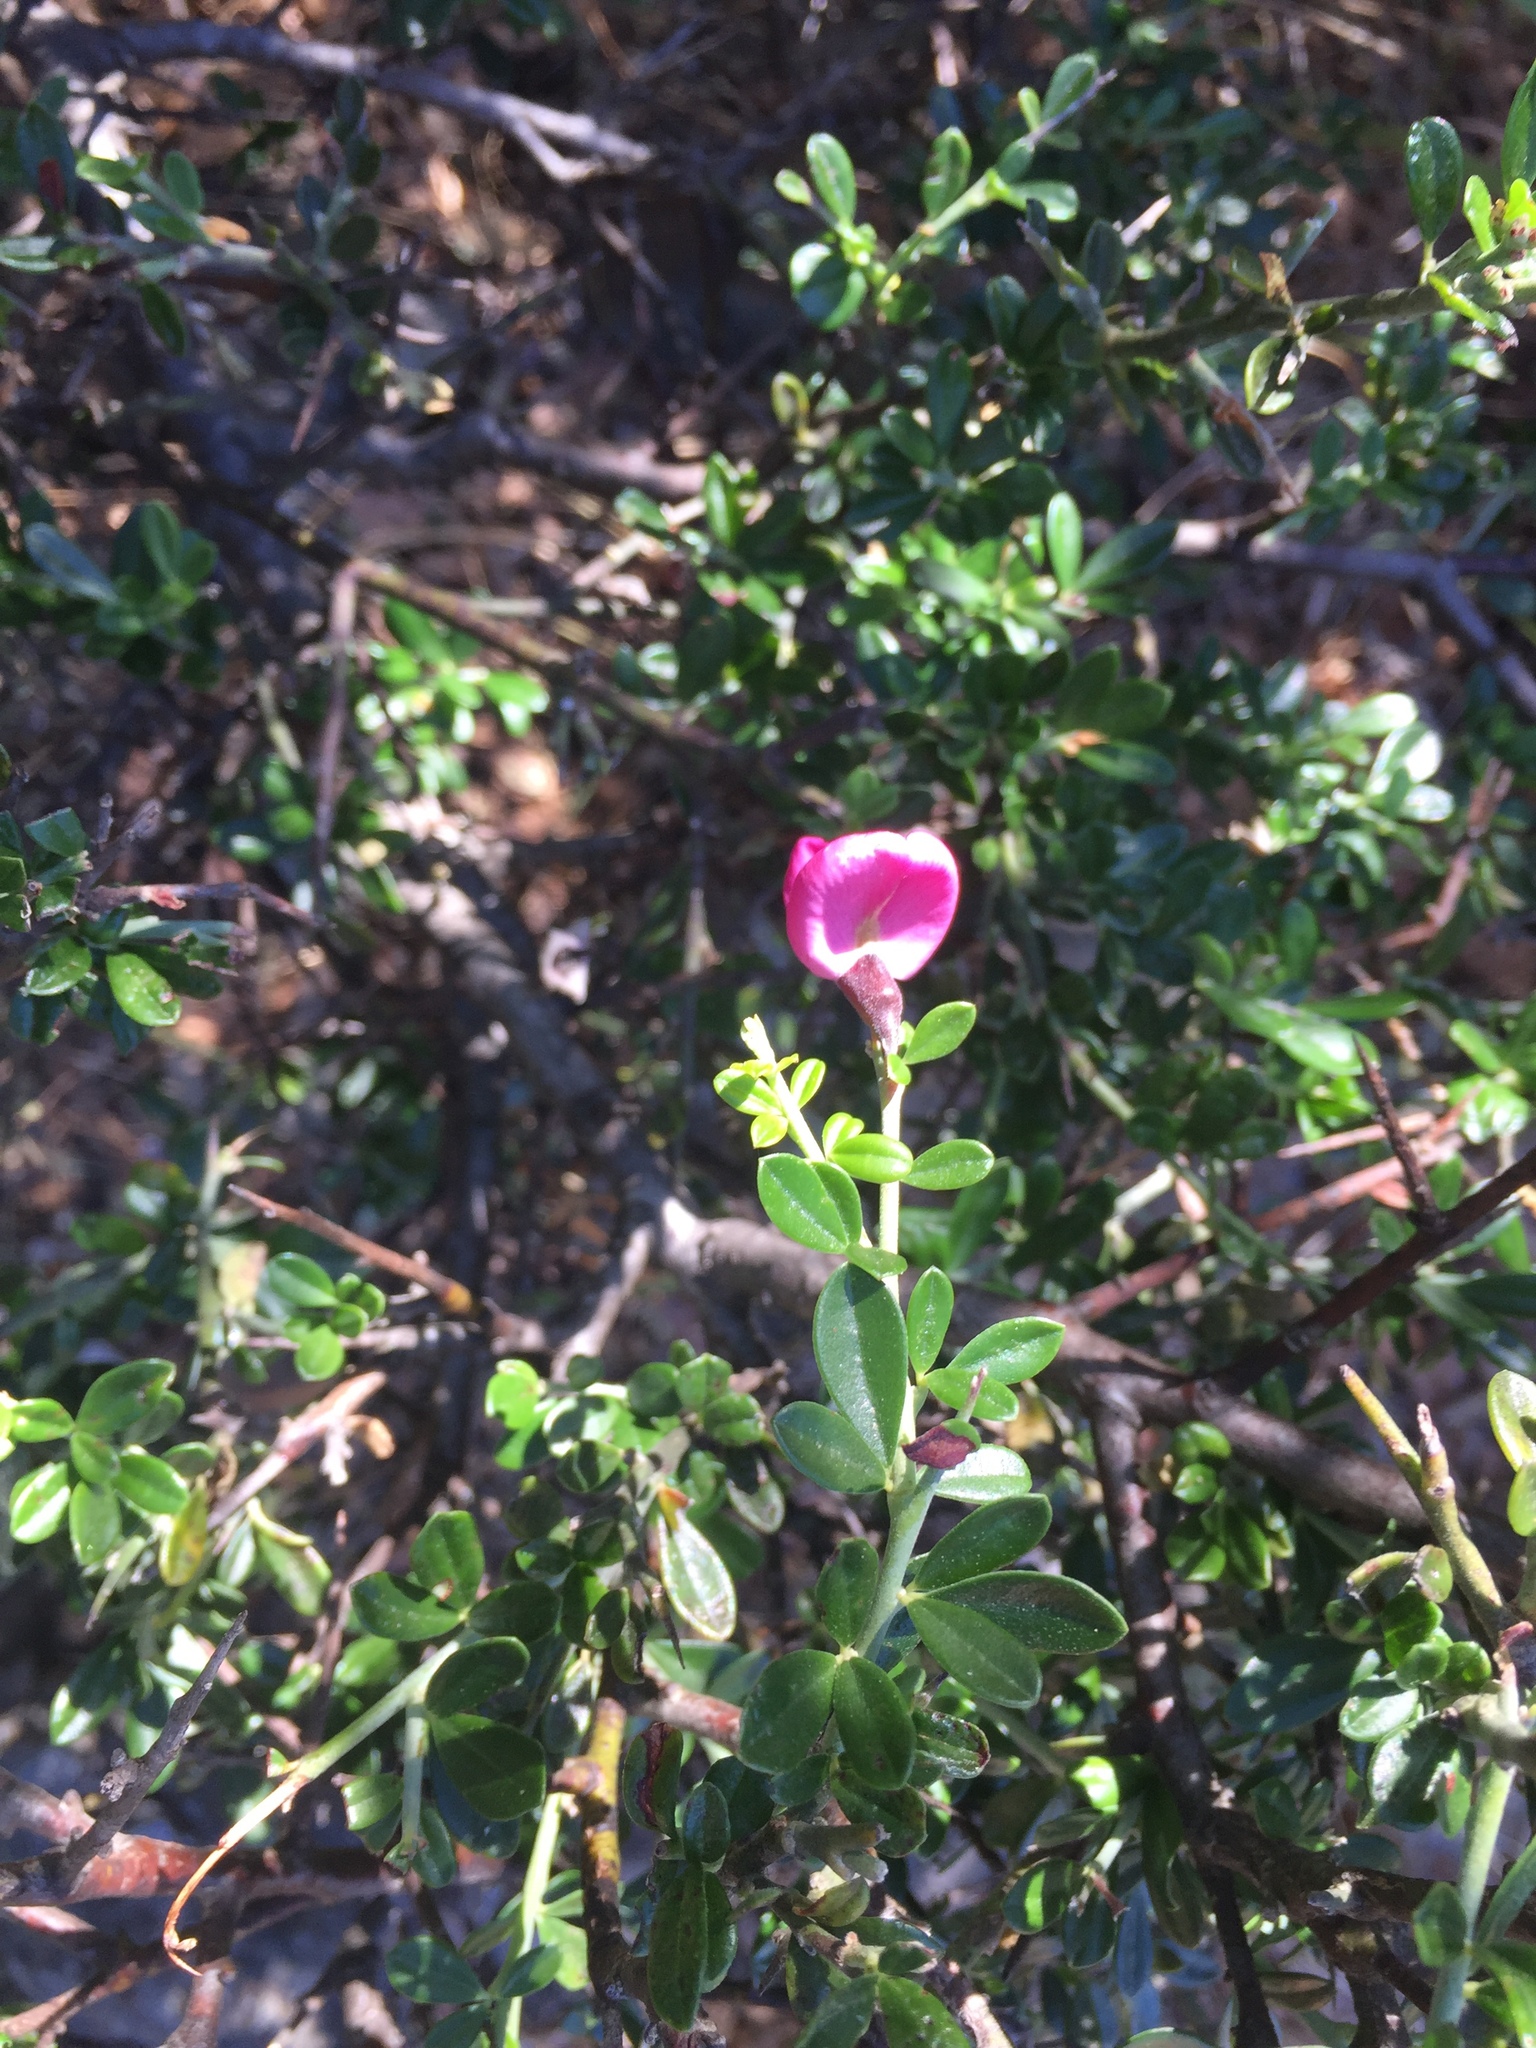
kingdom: Plantae
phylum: Tracheophyta
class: Magnoliopsida
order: Fabales
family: Fabaceae
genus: Pickeringia
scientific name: Pickeringia montana
